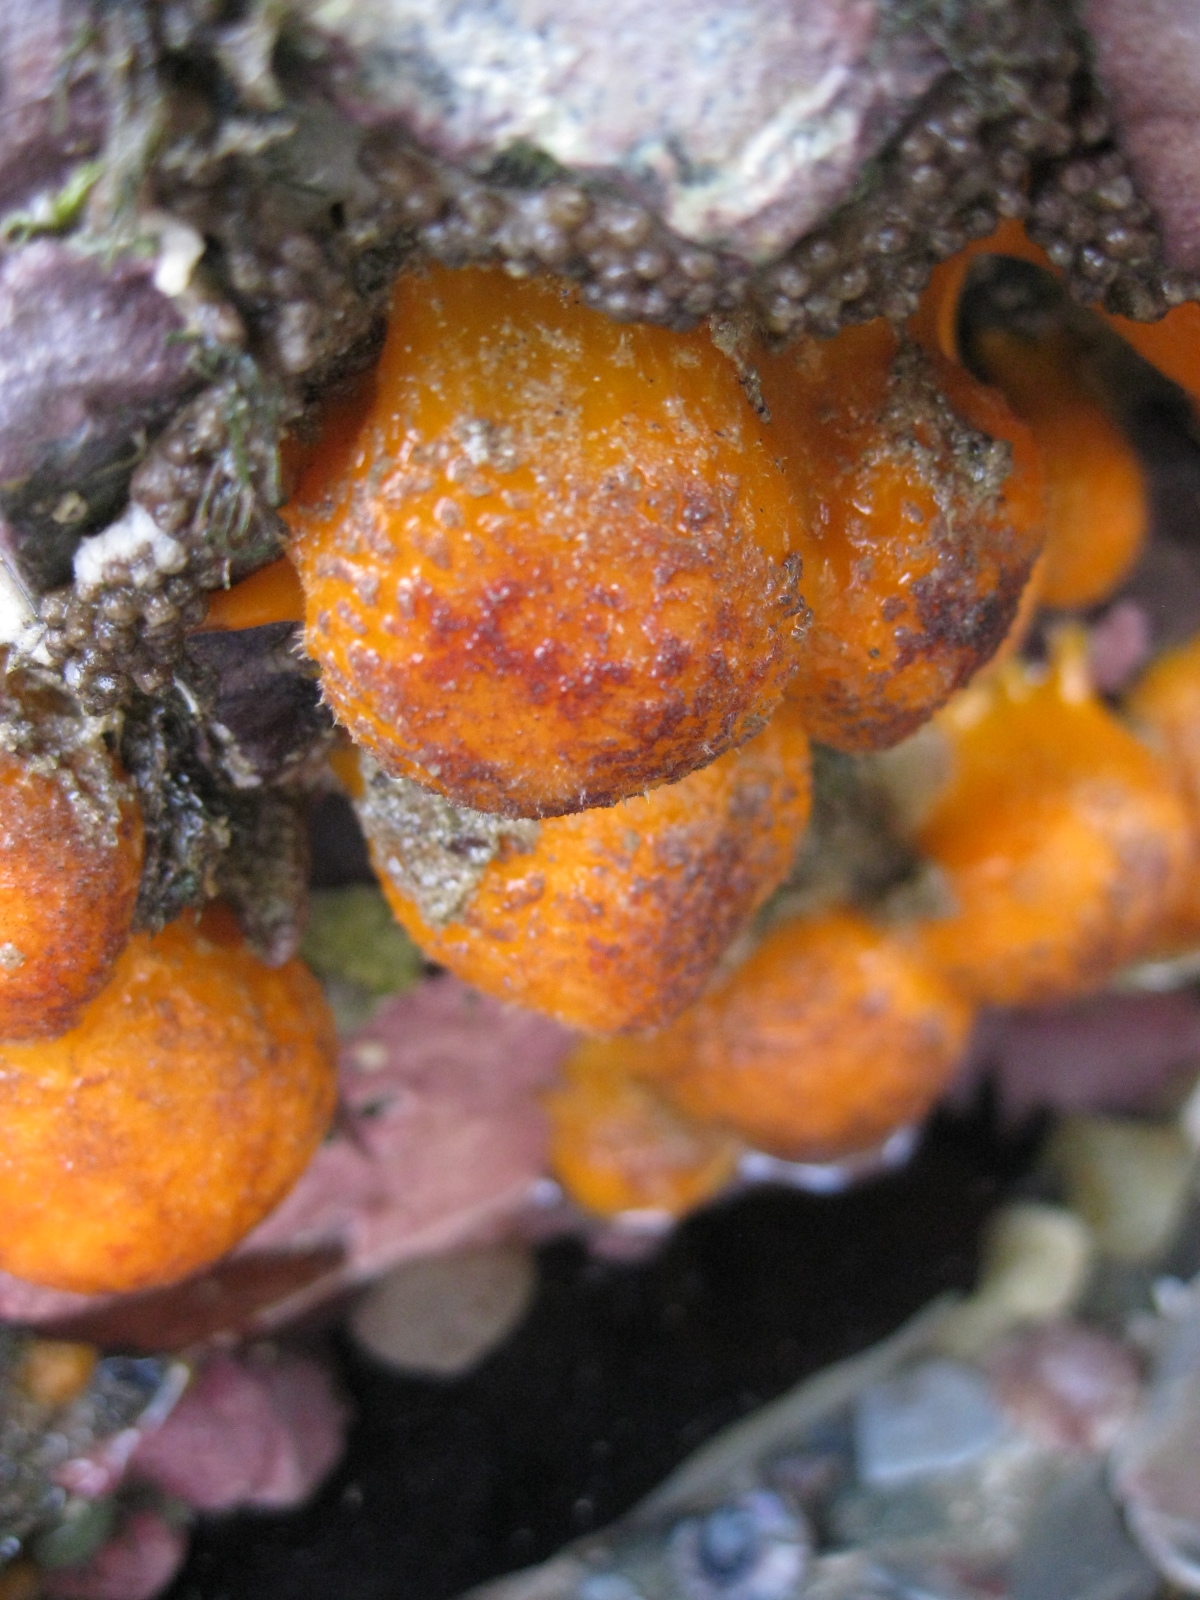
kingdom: Animalia
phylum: Porifera
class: Demospongiae
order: Tethyida
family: Tethyidae
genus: Tethya
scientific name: Tethya burtoni
